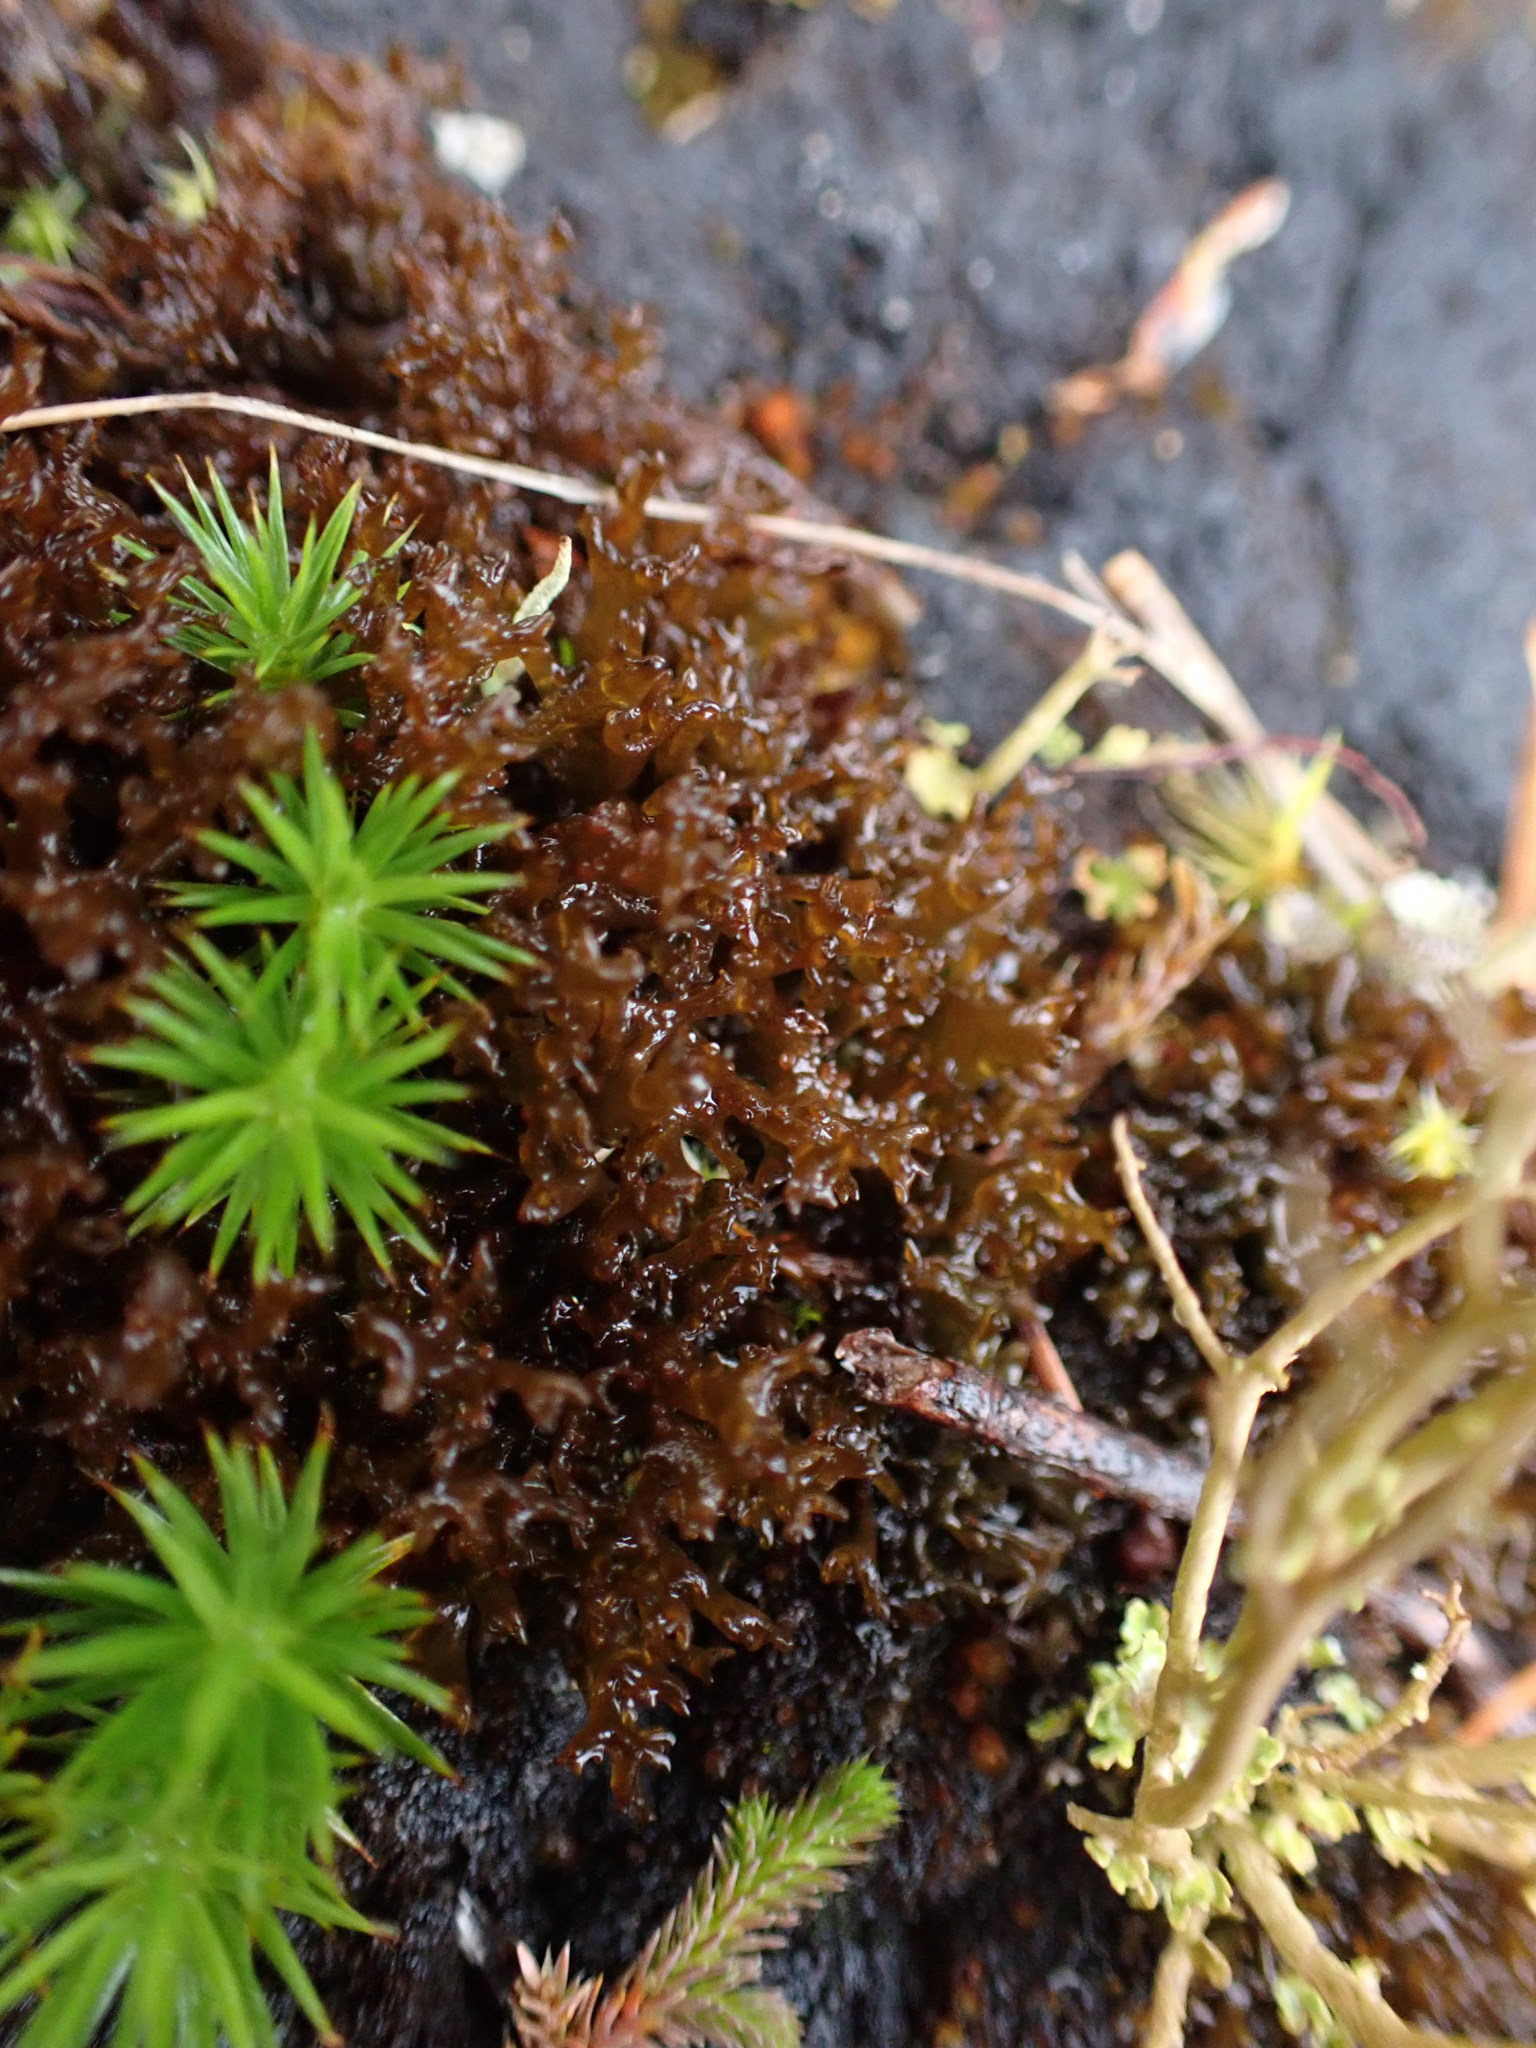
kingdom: Fungi
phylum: Ascomycota
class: Lecanoromycetes
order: Peltigerales
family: Collemataceae
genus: Scytinium
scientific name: Scytinium palmatum
